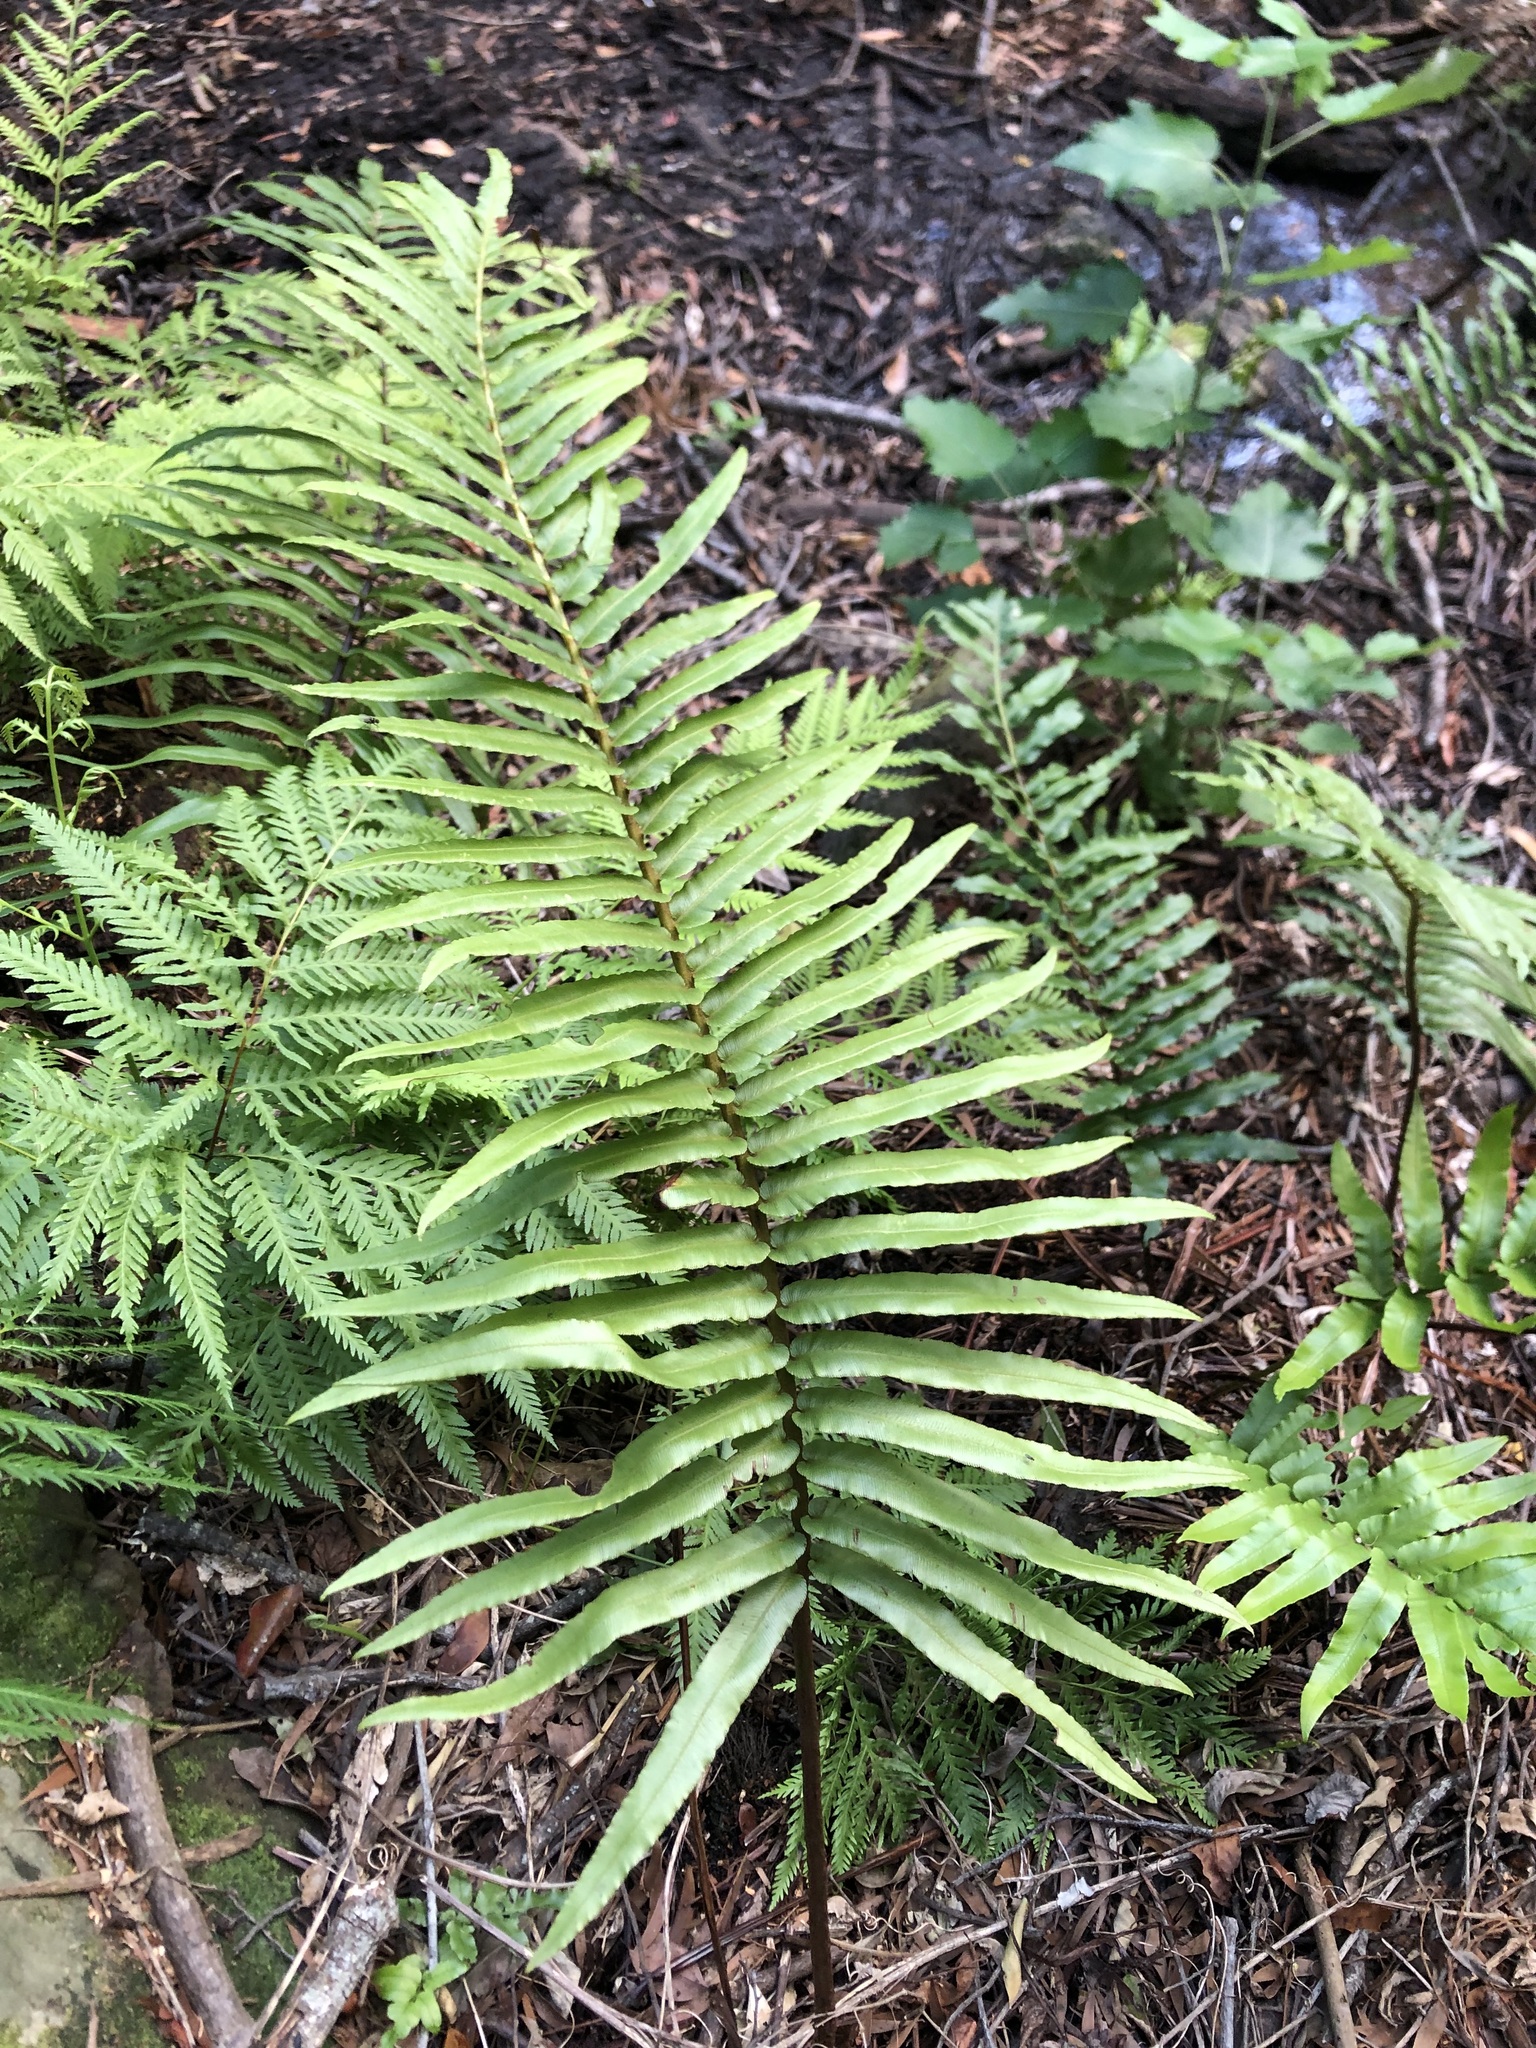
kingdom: Plantae
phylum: Tracheophyta
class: Polypodiopsida
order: Polypodiales
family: Blechnaceae
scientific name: Blechnaceae
